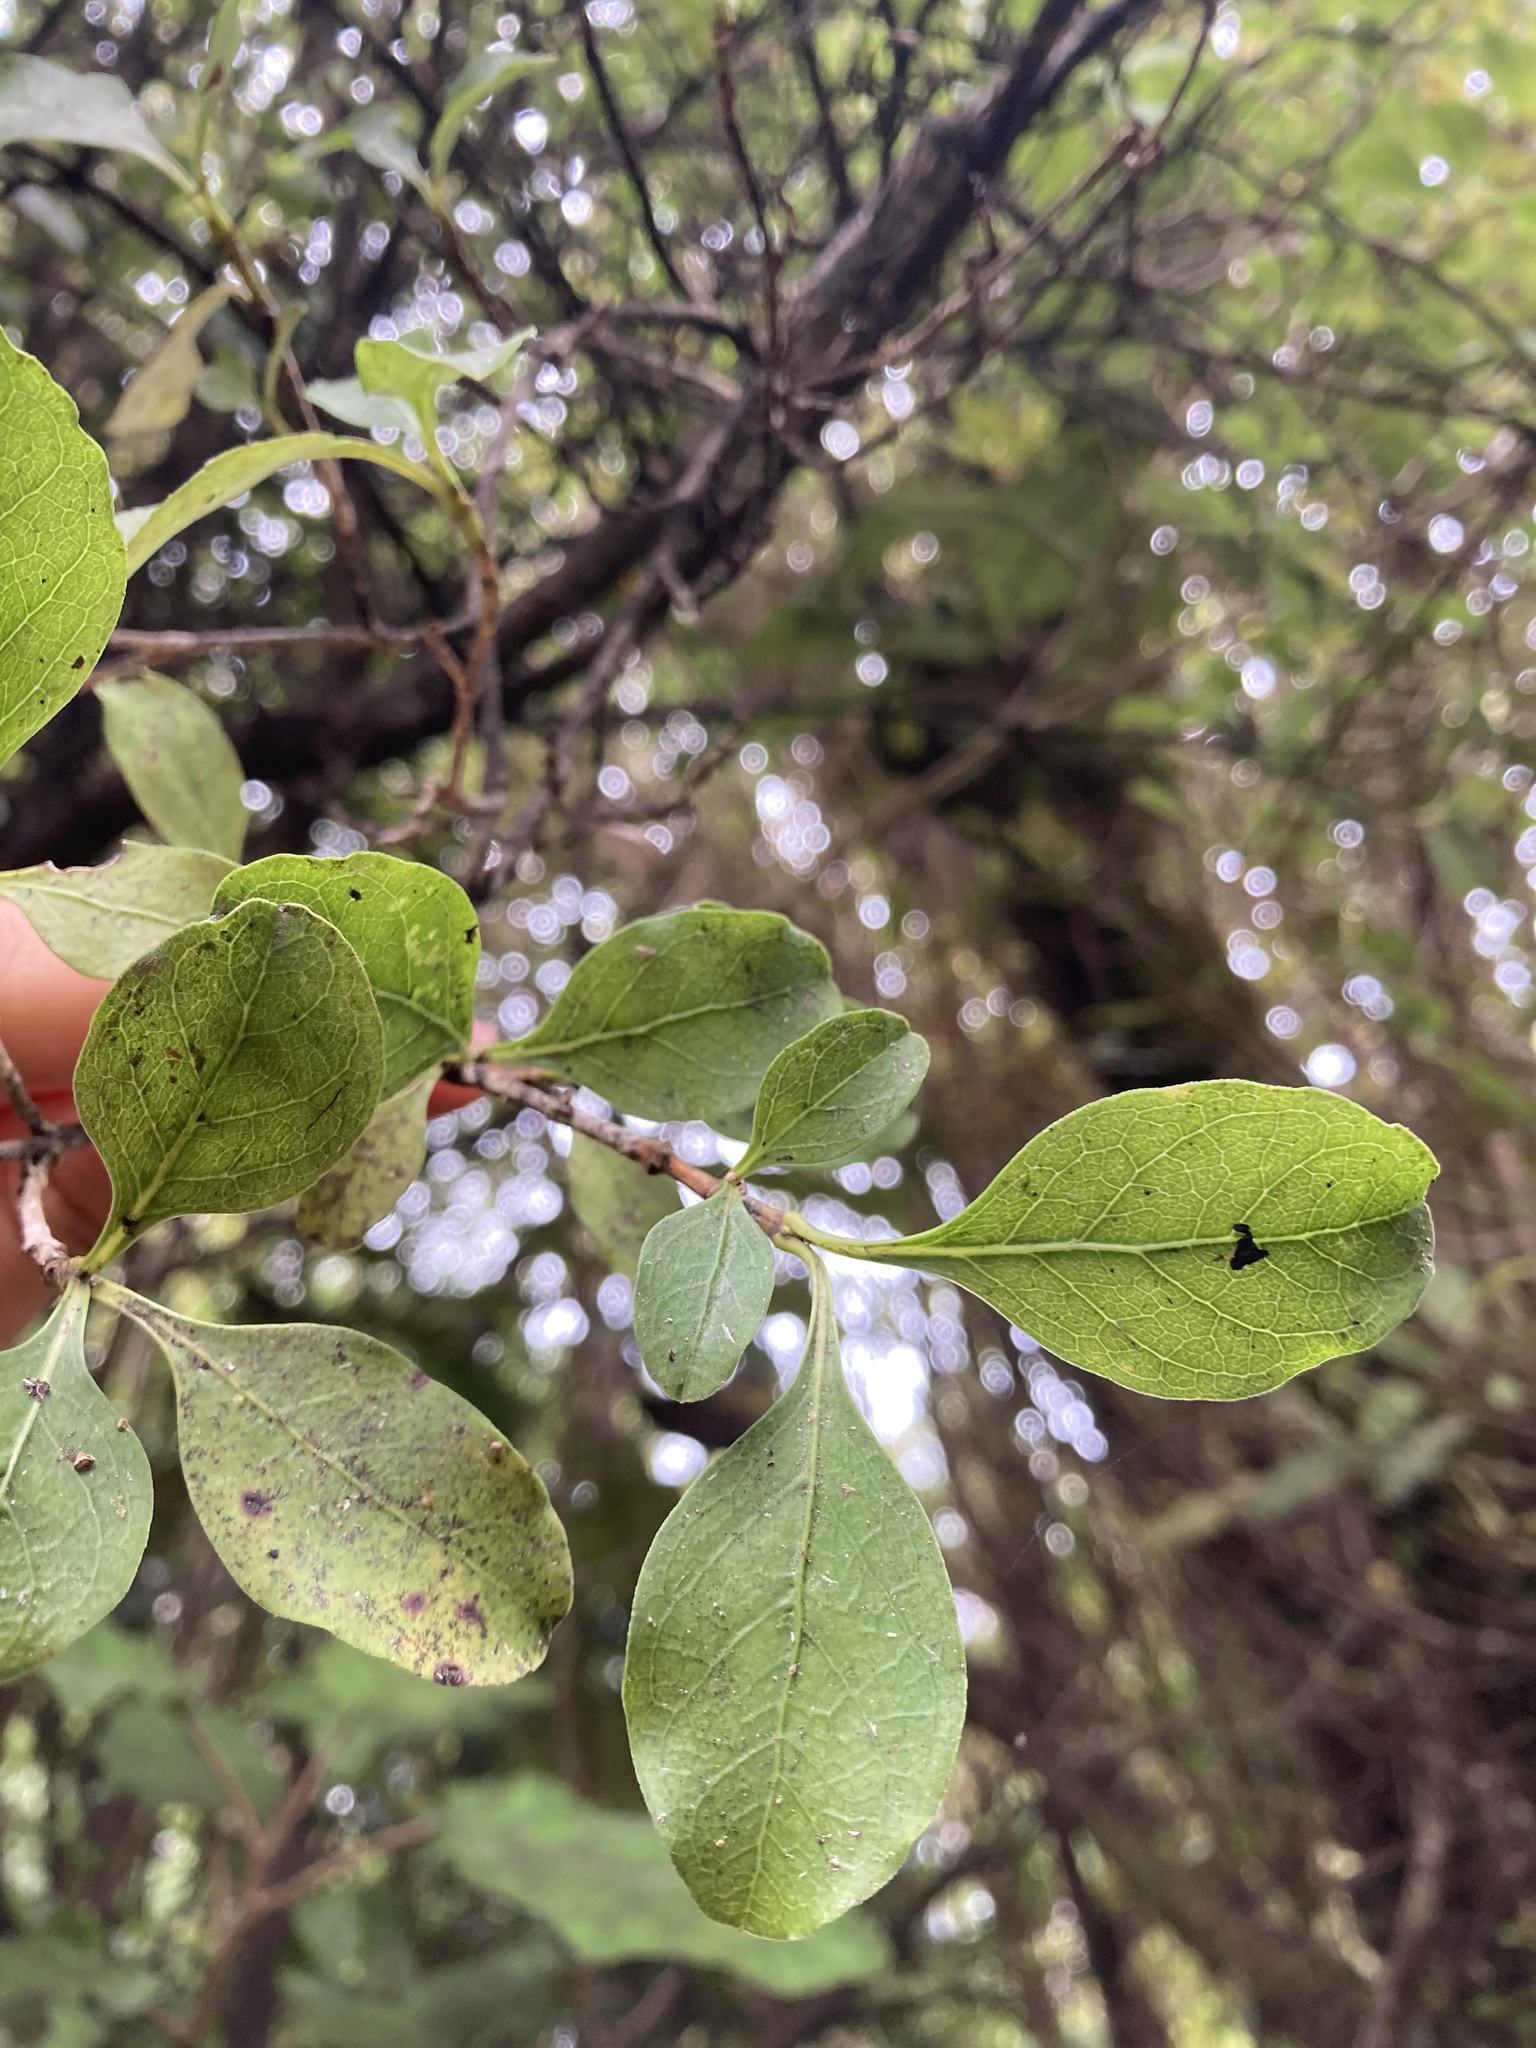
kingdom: Plantae
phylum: Tracheophyta
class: Magnoliopsida
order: Gentianales
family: Rubiaceae
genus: Coprosma
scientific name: Coprosma foetidissima
